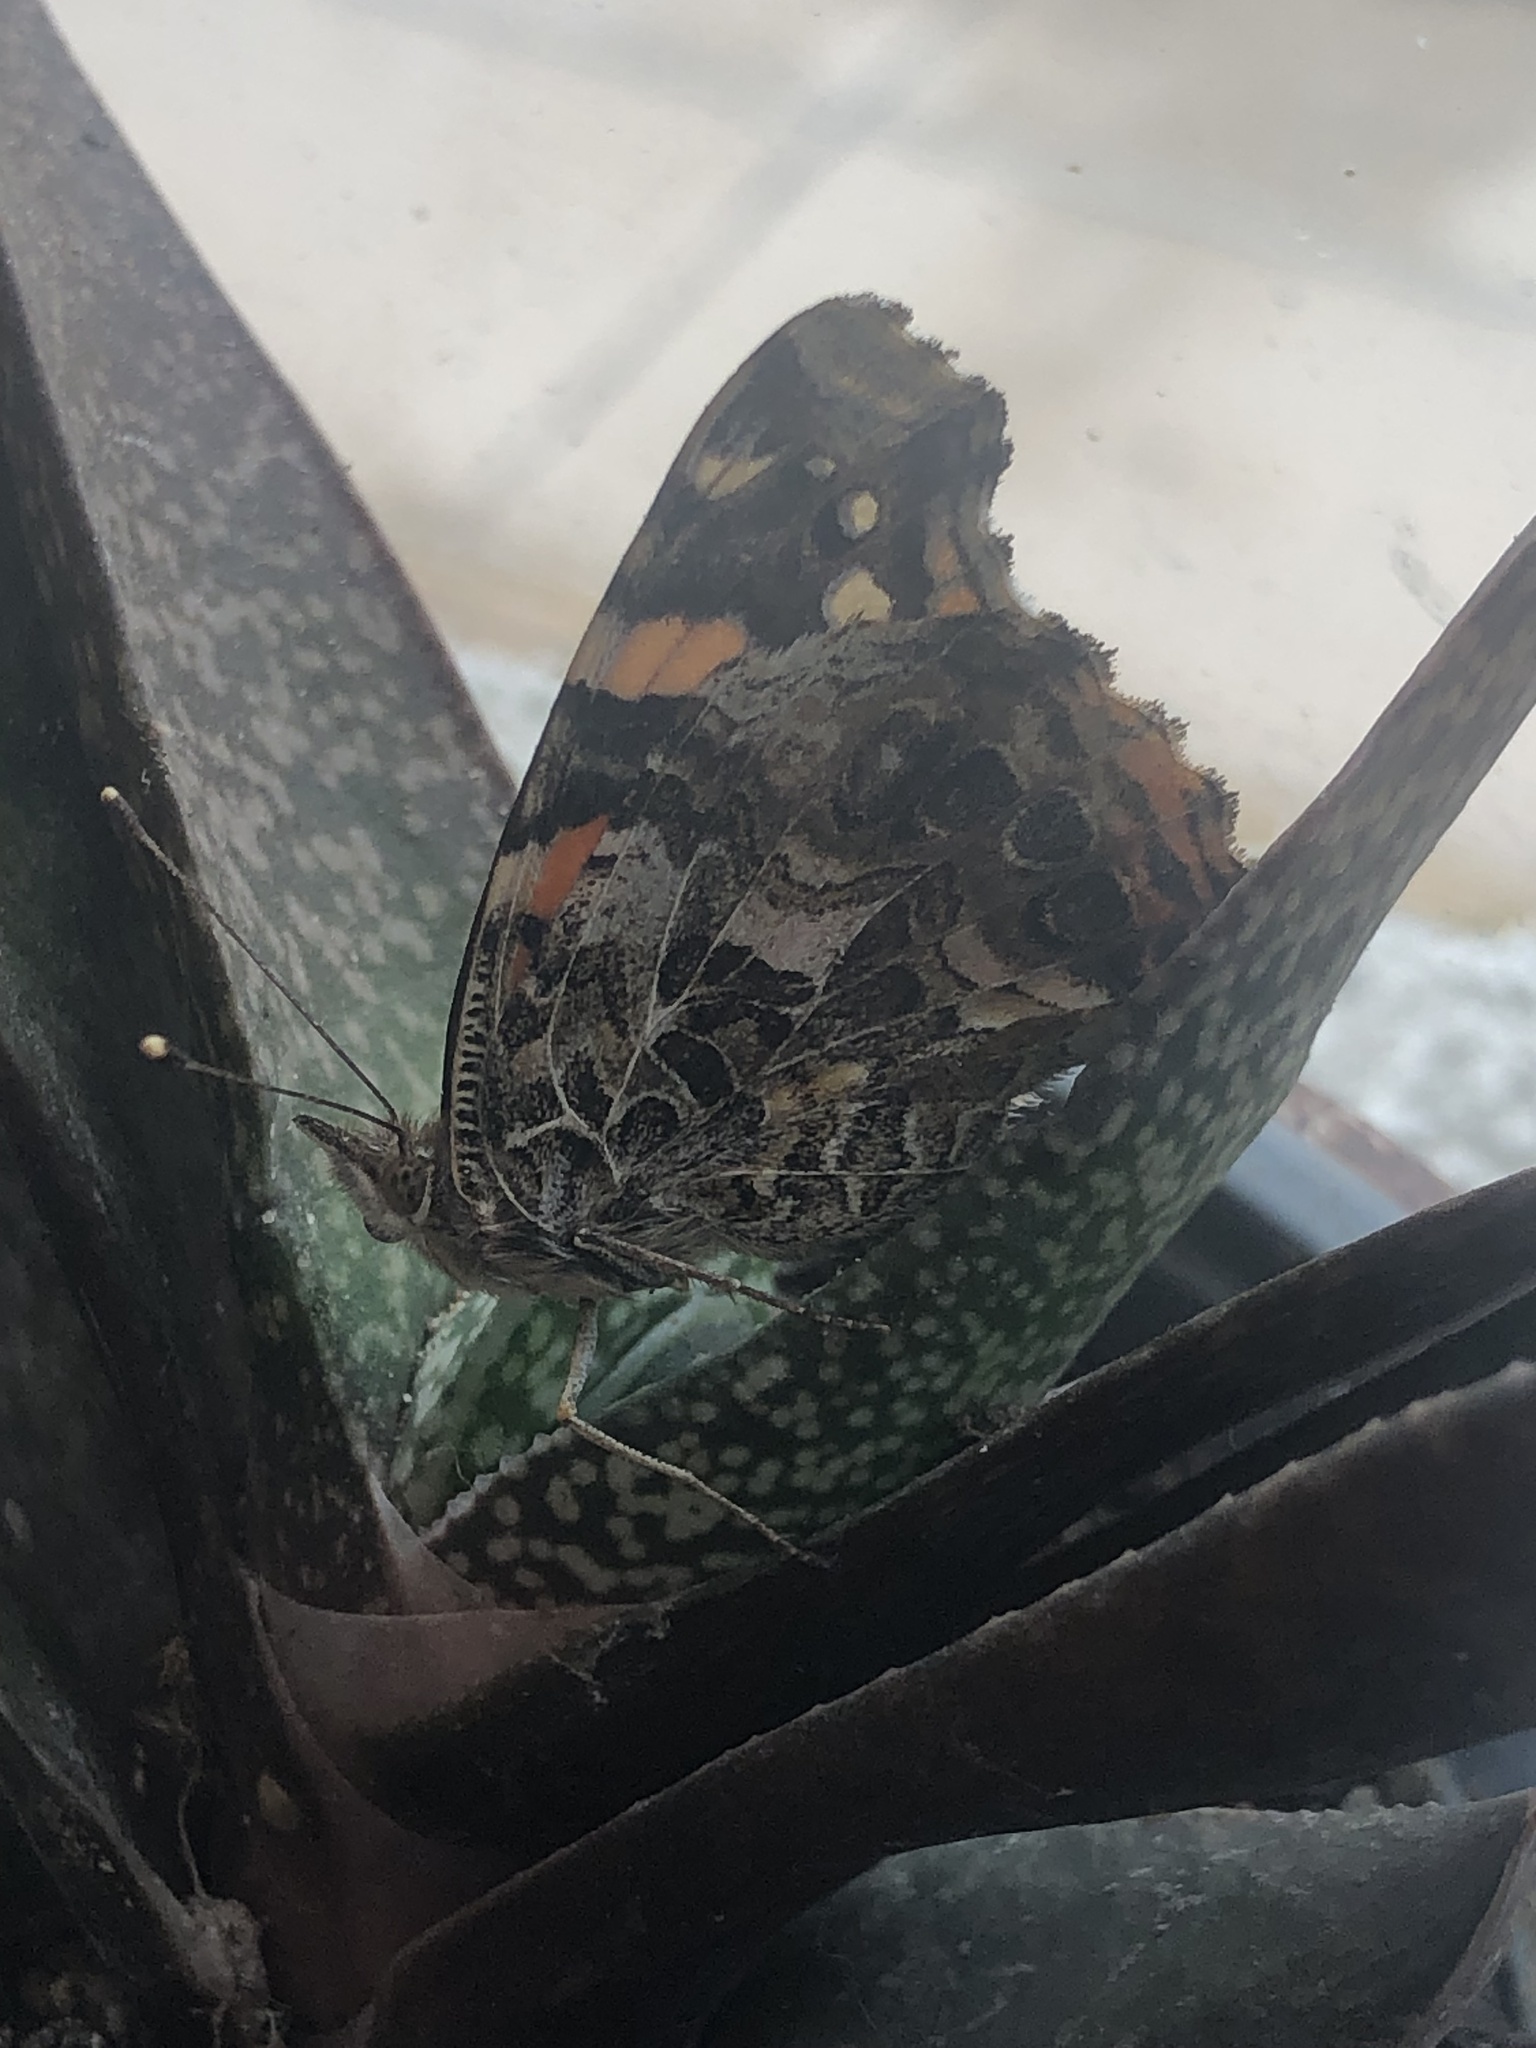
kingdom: Animalia
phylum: Arthropoda
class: Insecta
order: Lepidoptera
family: Nymphalidae
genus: Vanessa
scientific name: Vanessa carye
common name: Subtropical lady
